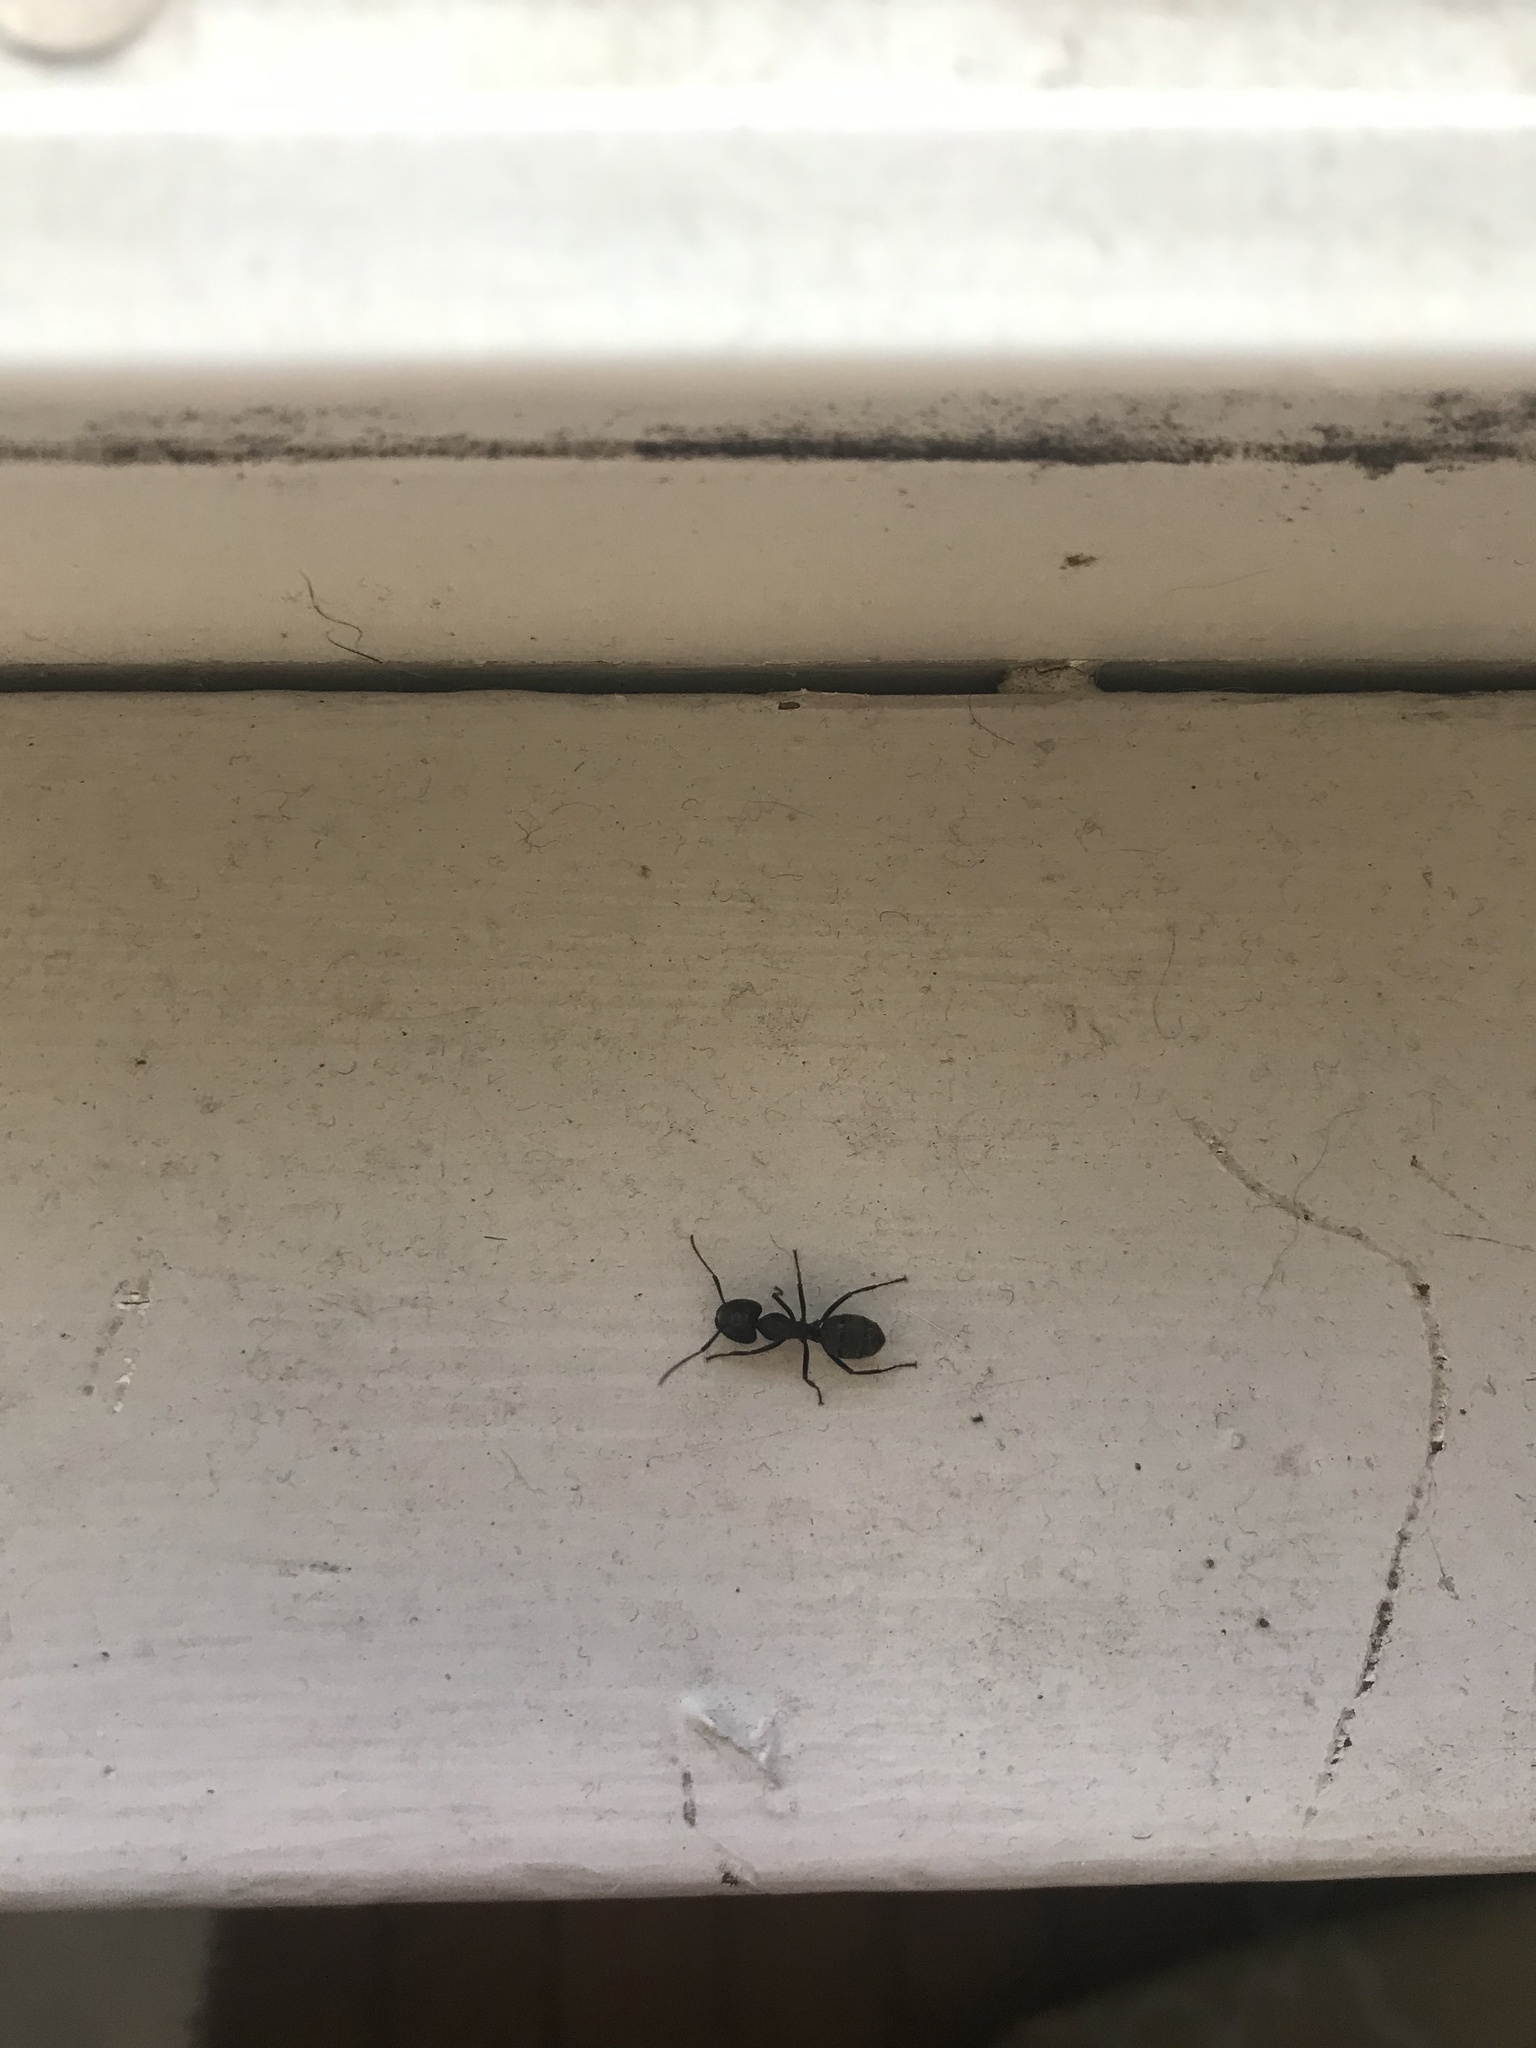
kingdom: Animalia
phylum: Arthropoda
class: Insecta
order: Hymenoptera
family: Formicidae
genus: Camponotus
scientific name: Camponotus pennsylvanicus
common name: Black carpenter ant
